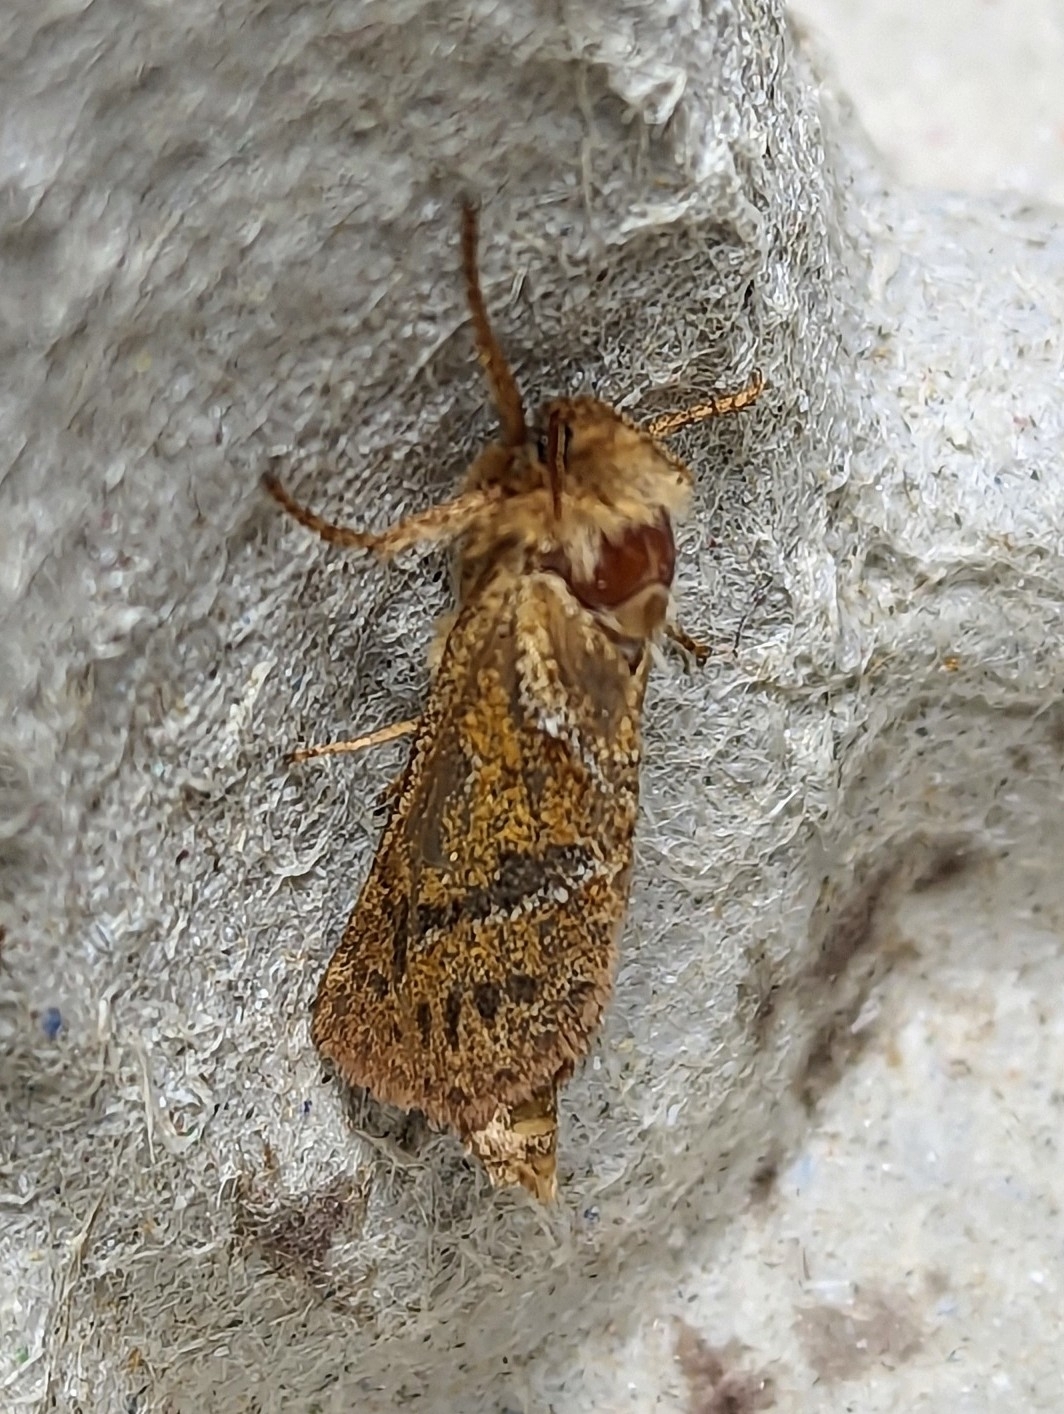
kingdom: Animalia
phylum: Arthropoda
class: Insecta
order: Lepidoptera
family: Hepialidae
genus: Triodia
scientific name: Triodia sylvina
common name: Orange swift
